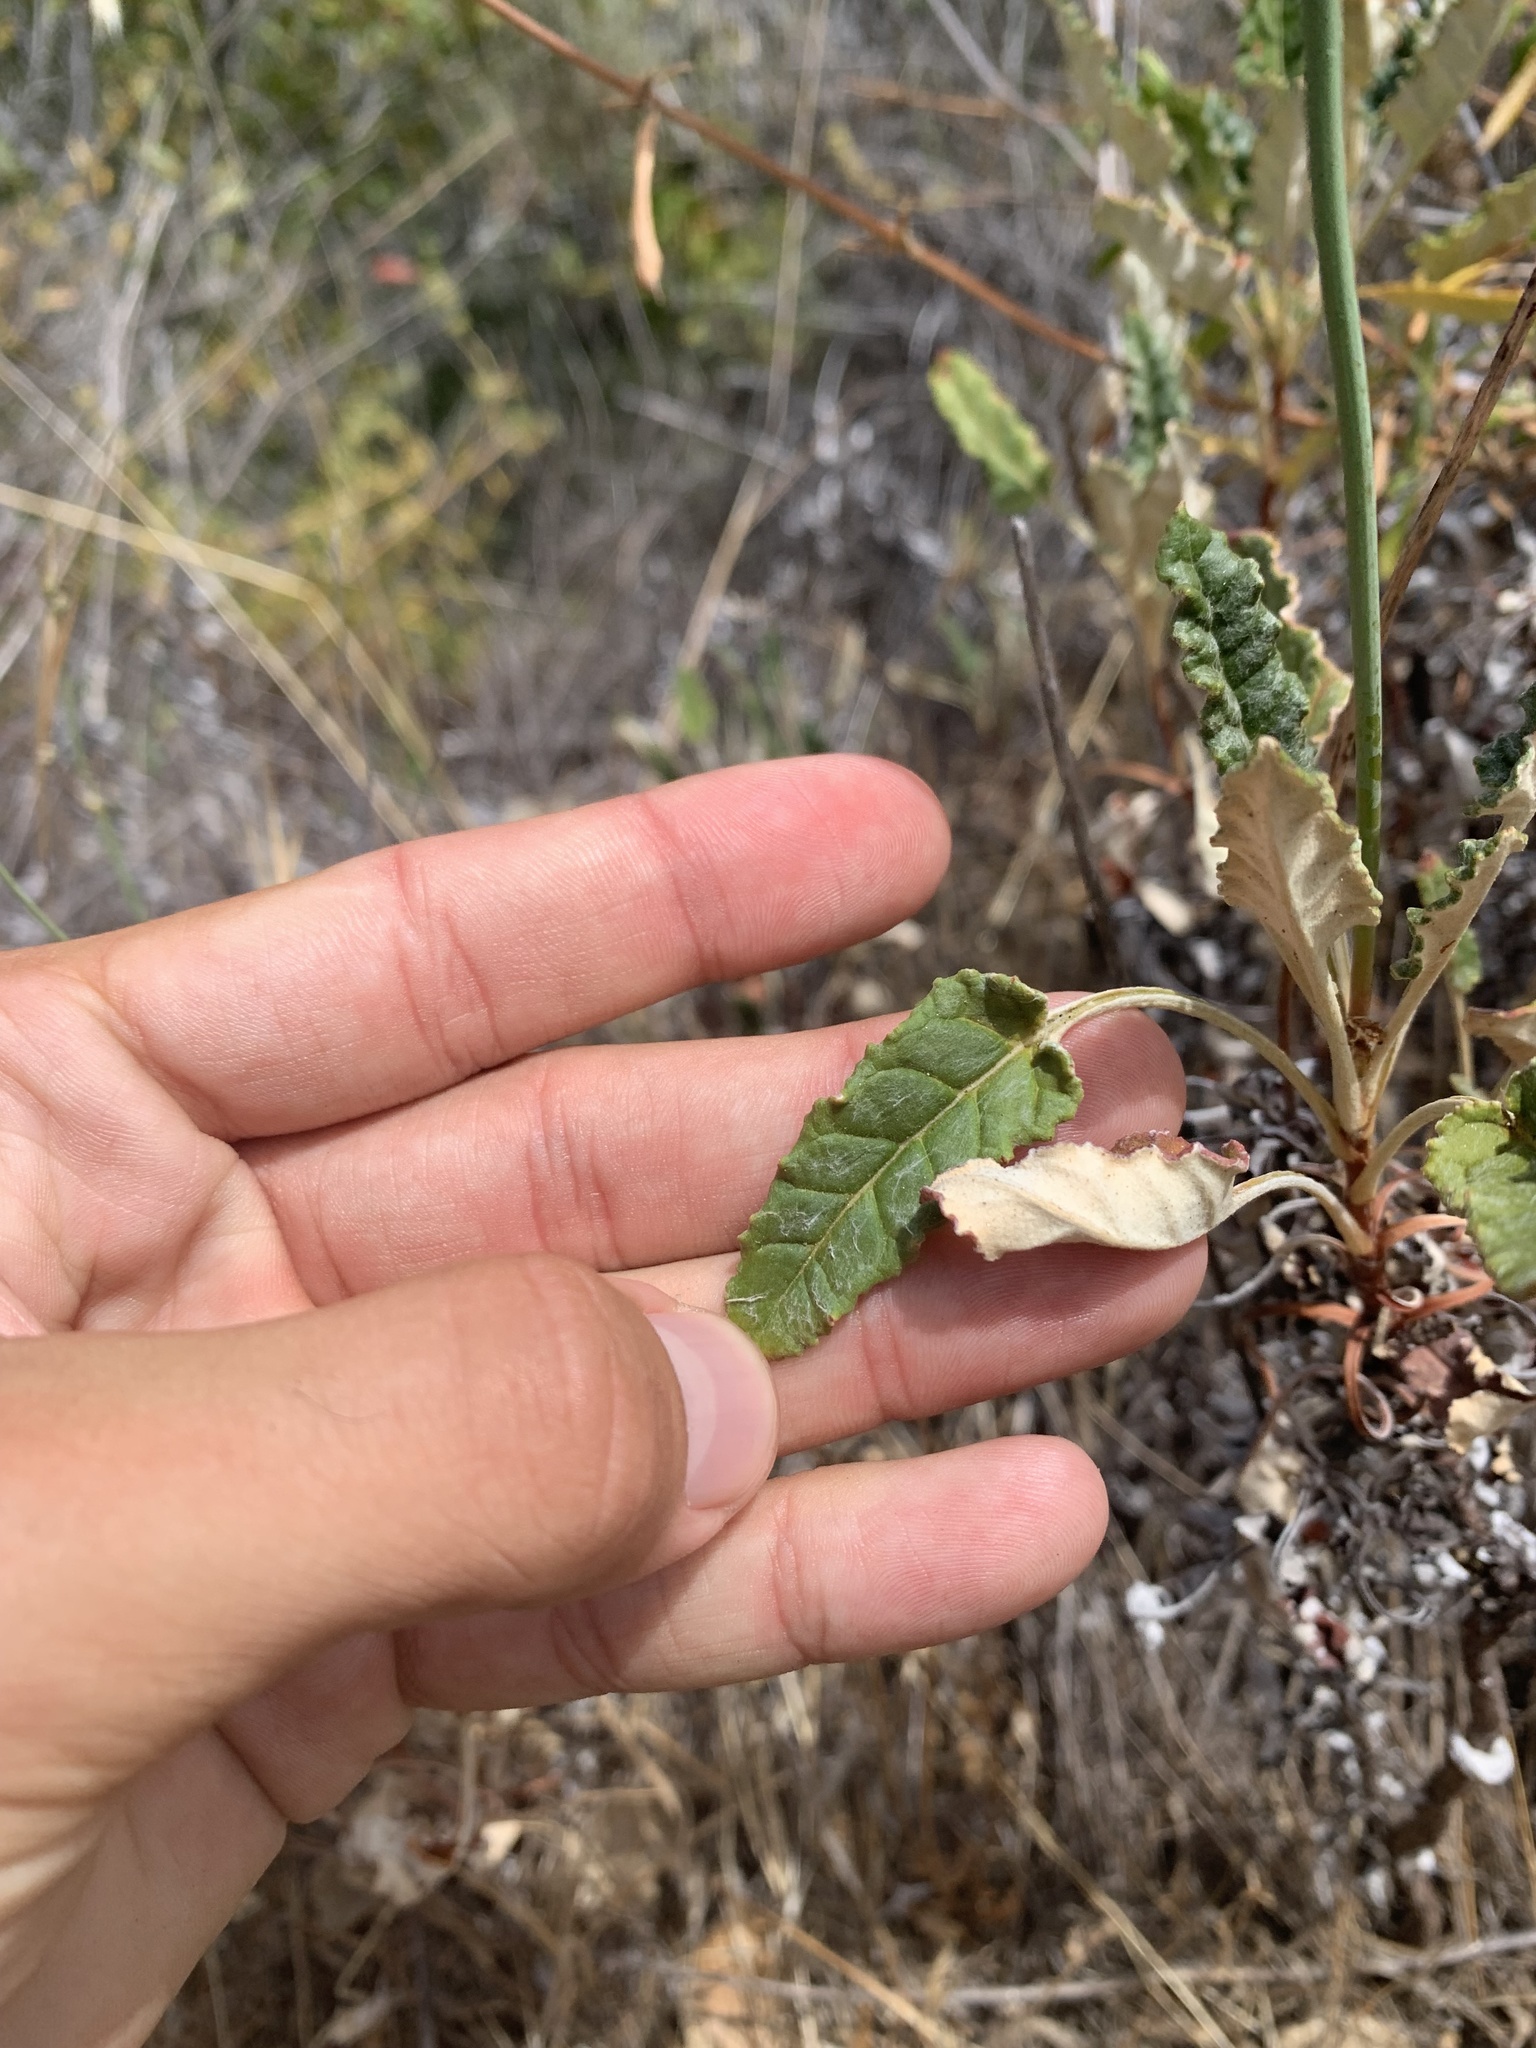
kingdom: Plantae
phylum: Tracheophyta
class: Magnoliopsida
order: Caryophyllales
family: Polygonaceae
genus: Eriogonum
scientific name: Eriogonum nudum
